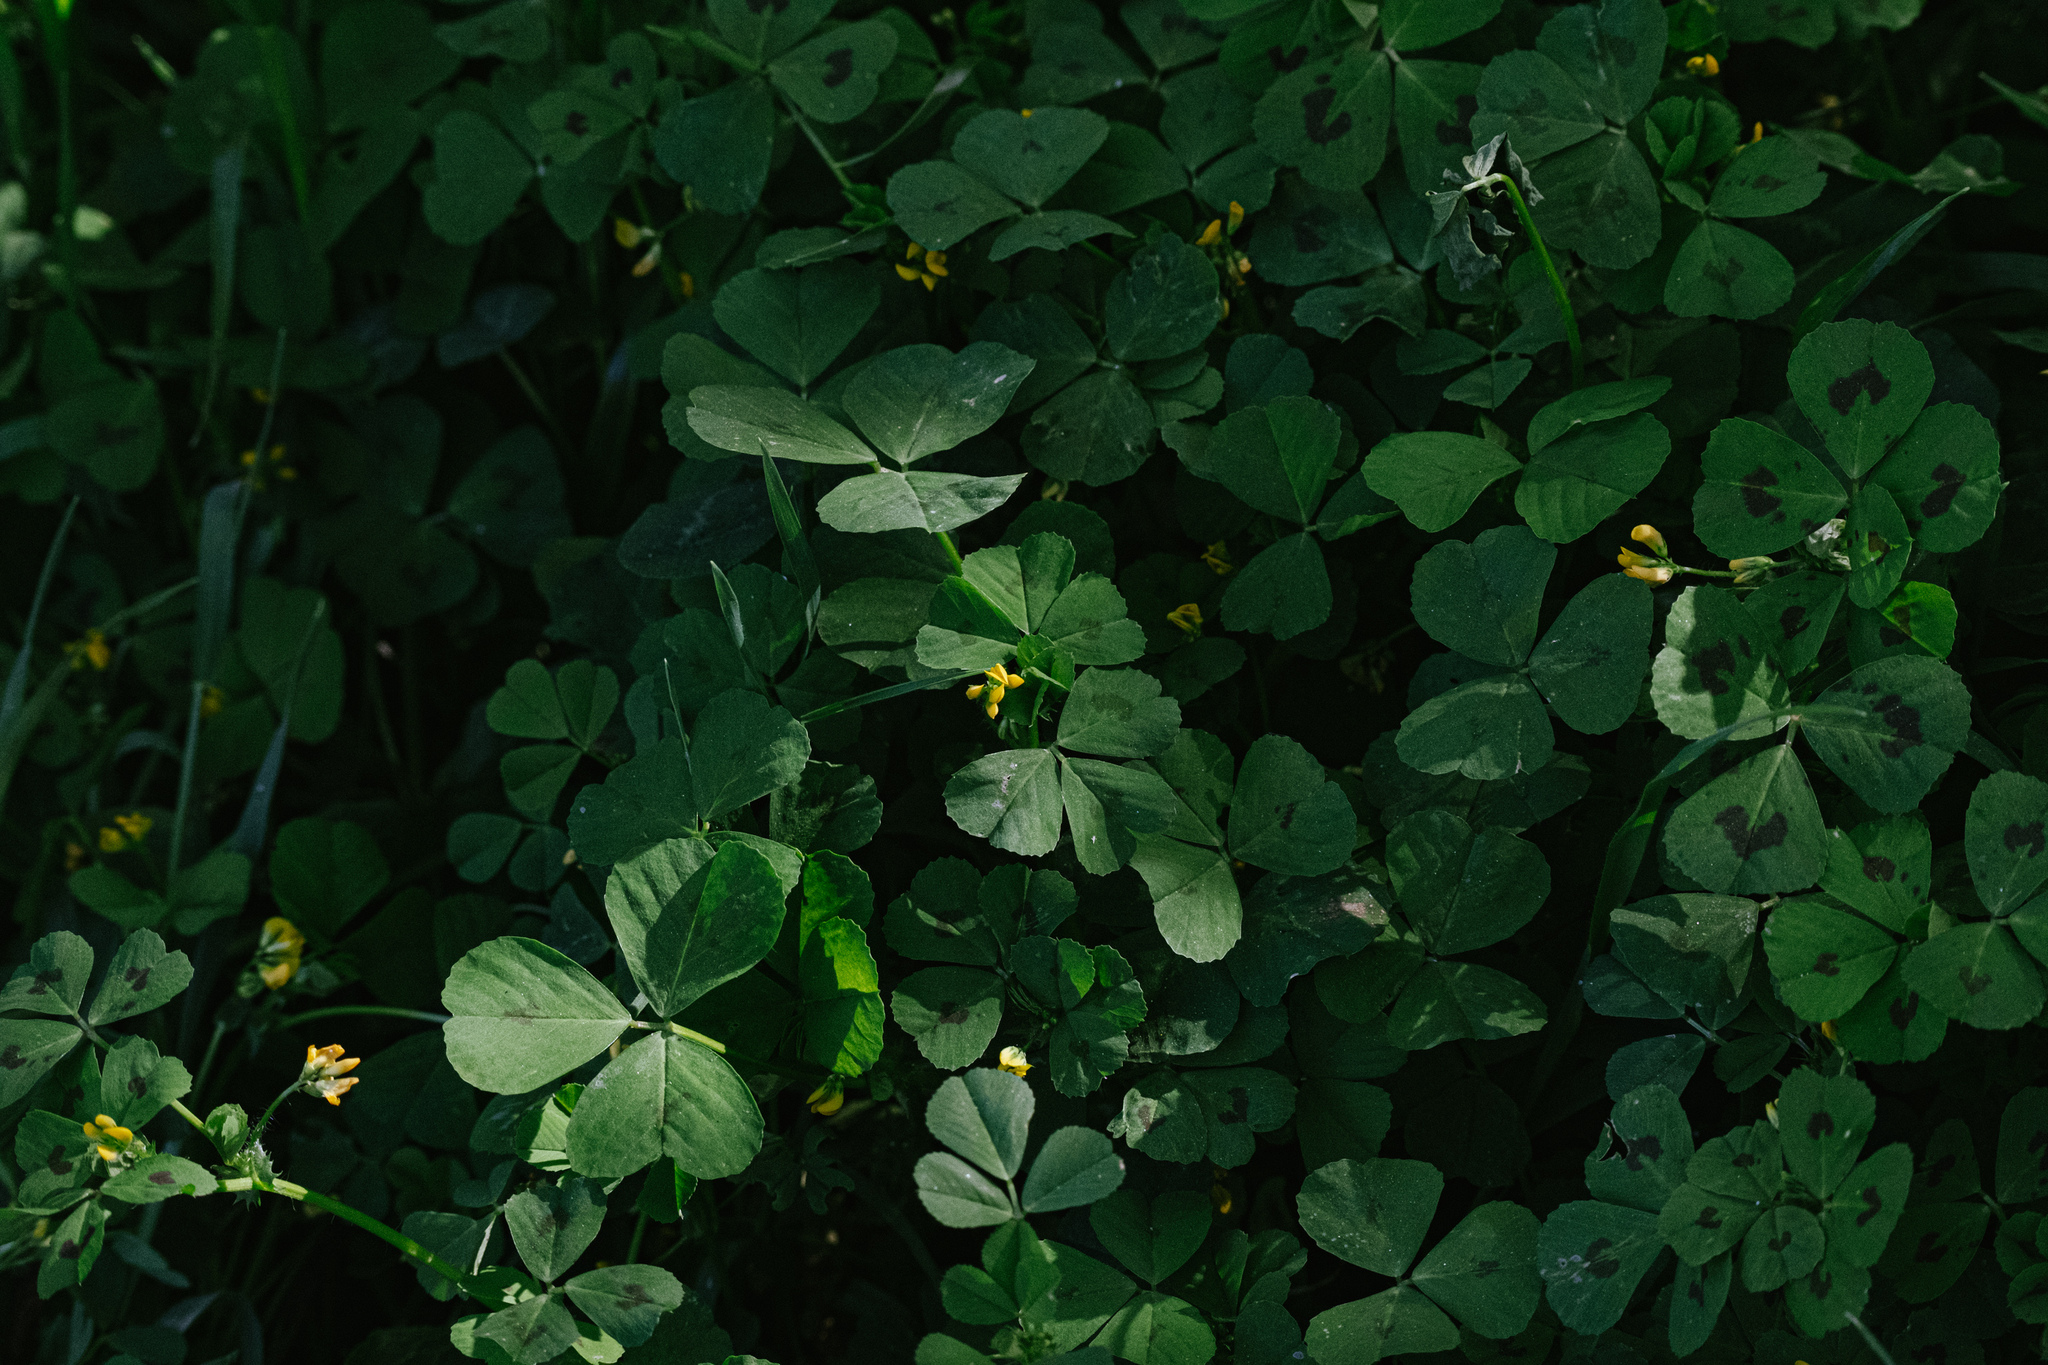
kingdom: Plantae
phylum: Tracheophyta
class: Magnoliopsida
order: Fabales
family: Fabaceae
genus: Medicago
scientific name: Medicago arabica
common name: Spotted medick
